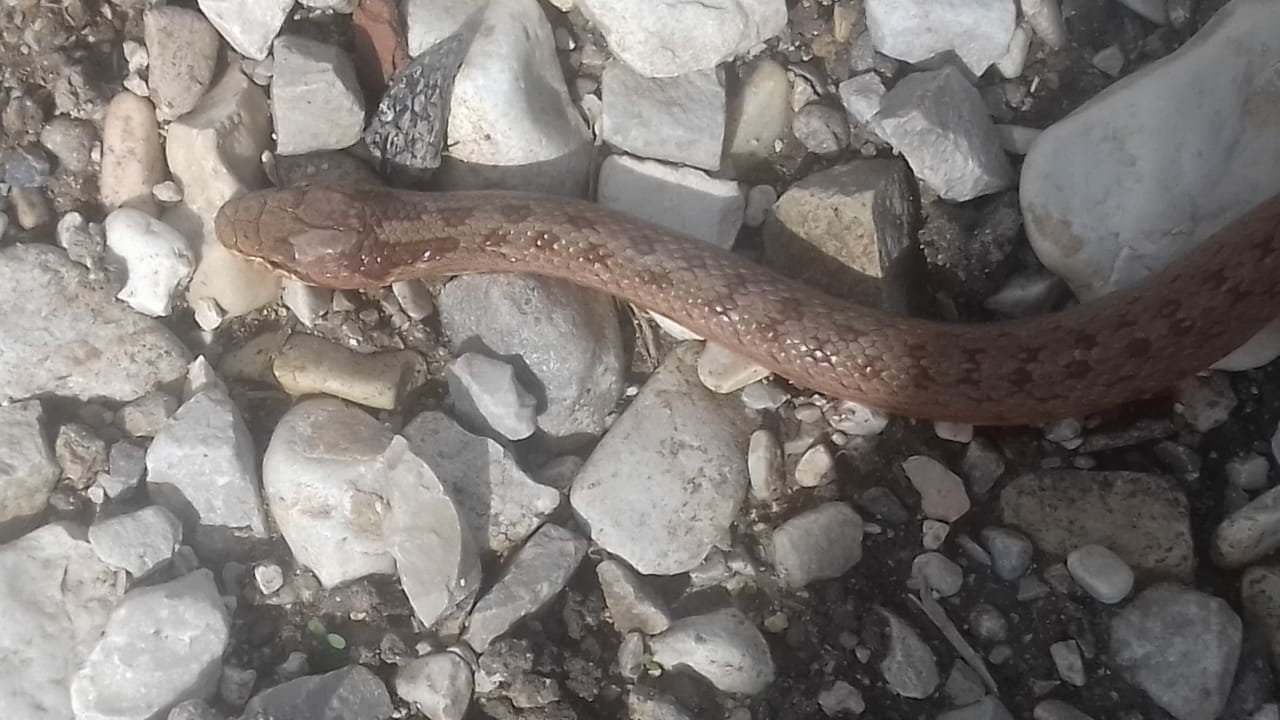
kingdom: Animalia
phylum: Chordata
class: Squamata
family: Colubridae
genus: Coronella
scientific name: Coronella austriaca
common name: Smooth snake
